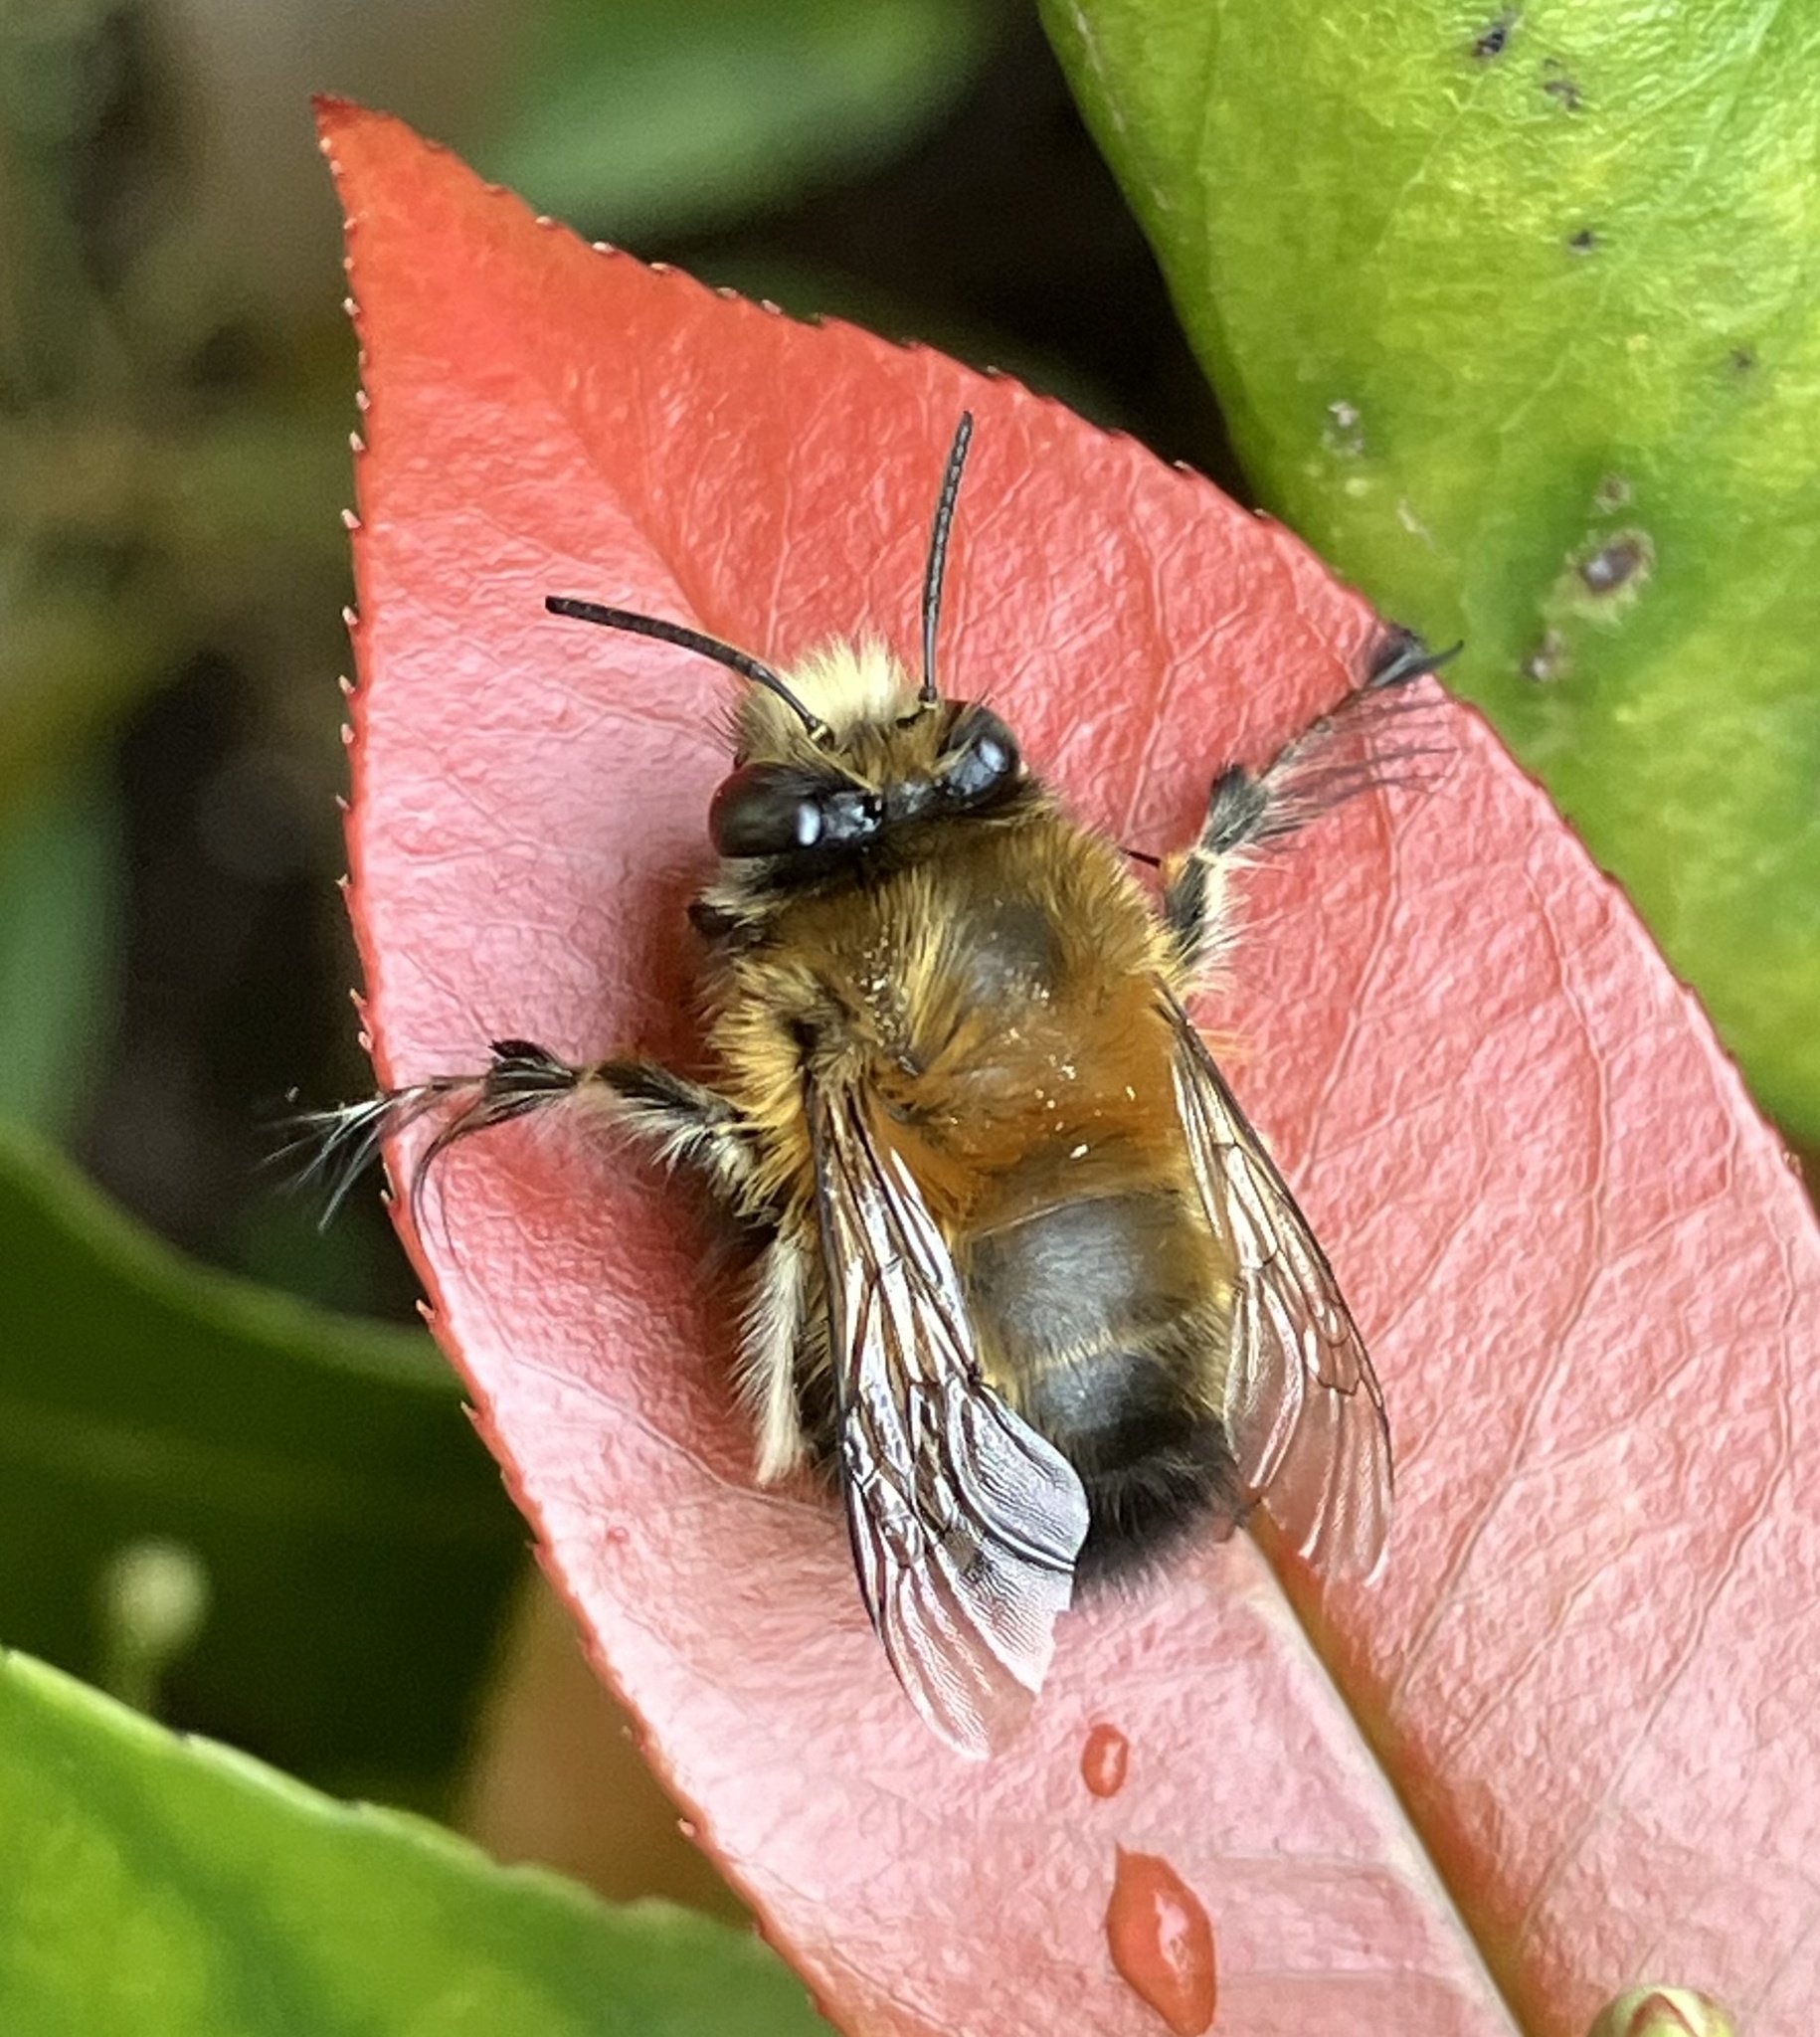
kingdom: Animalia
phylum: Arthropoda
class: Insecta
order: Hymenoptera
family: Apidae
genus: Anthophora
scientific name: Anthophora plumipes
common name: Hairy-footed flower bee
